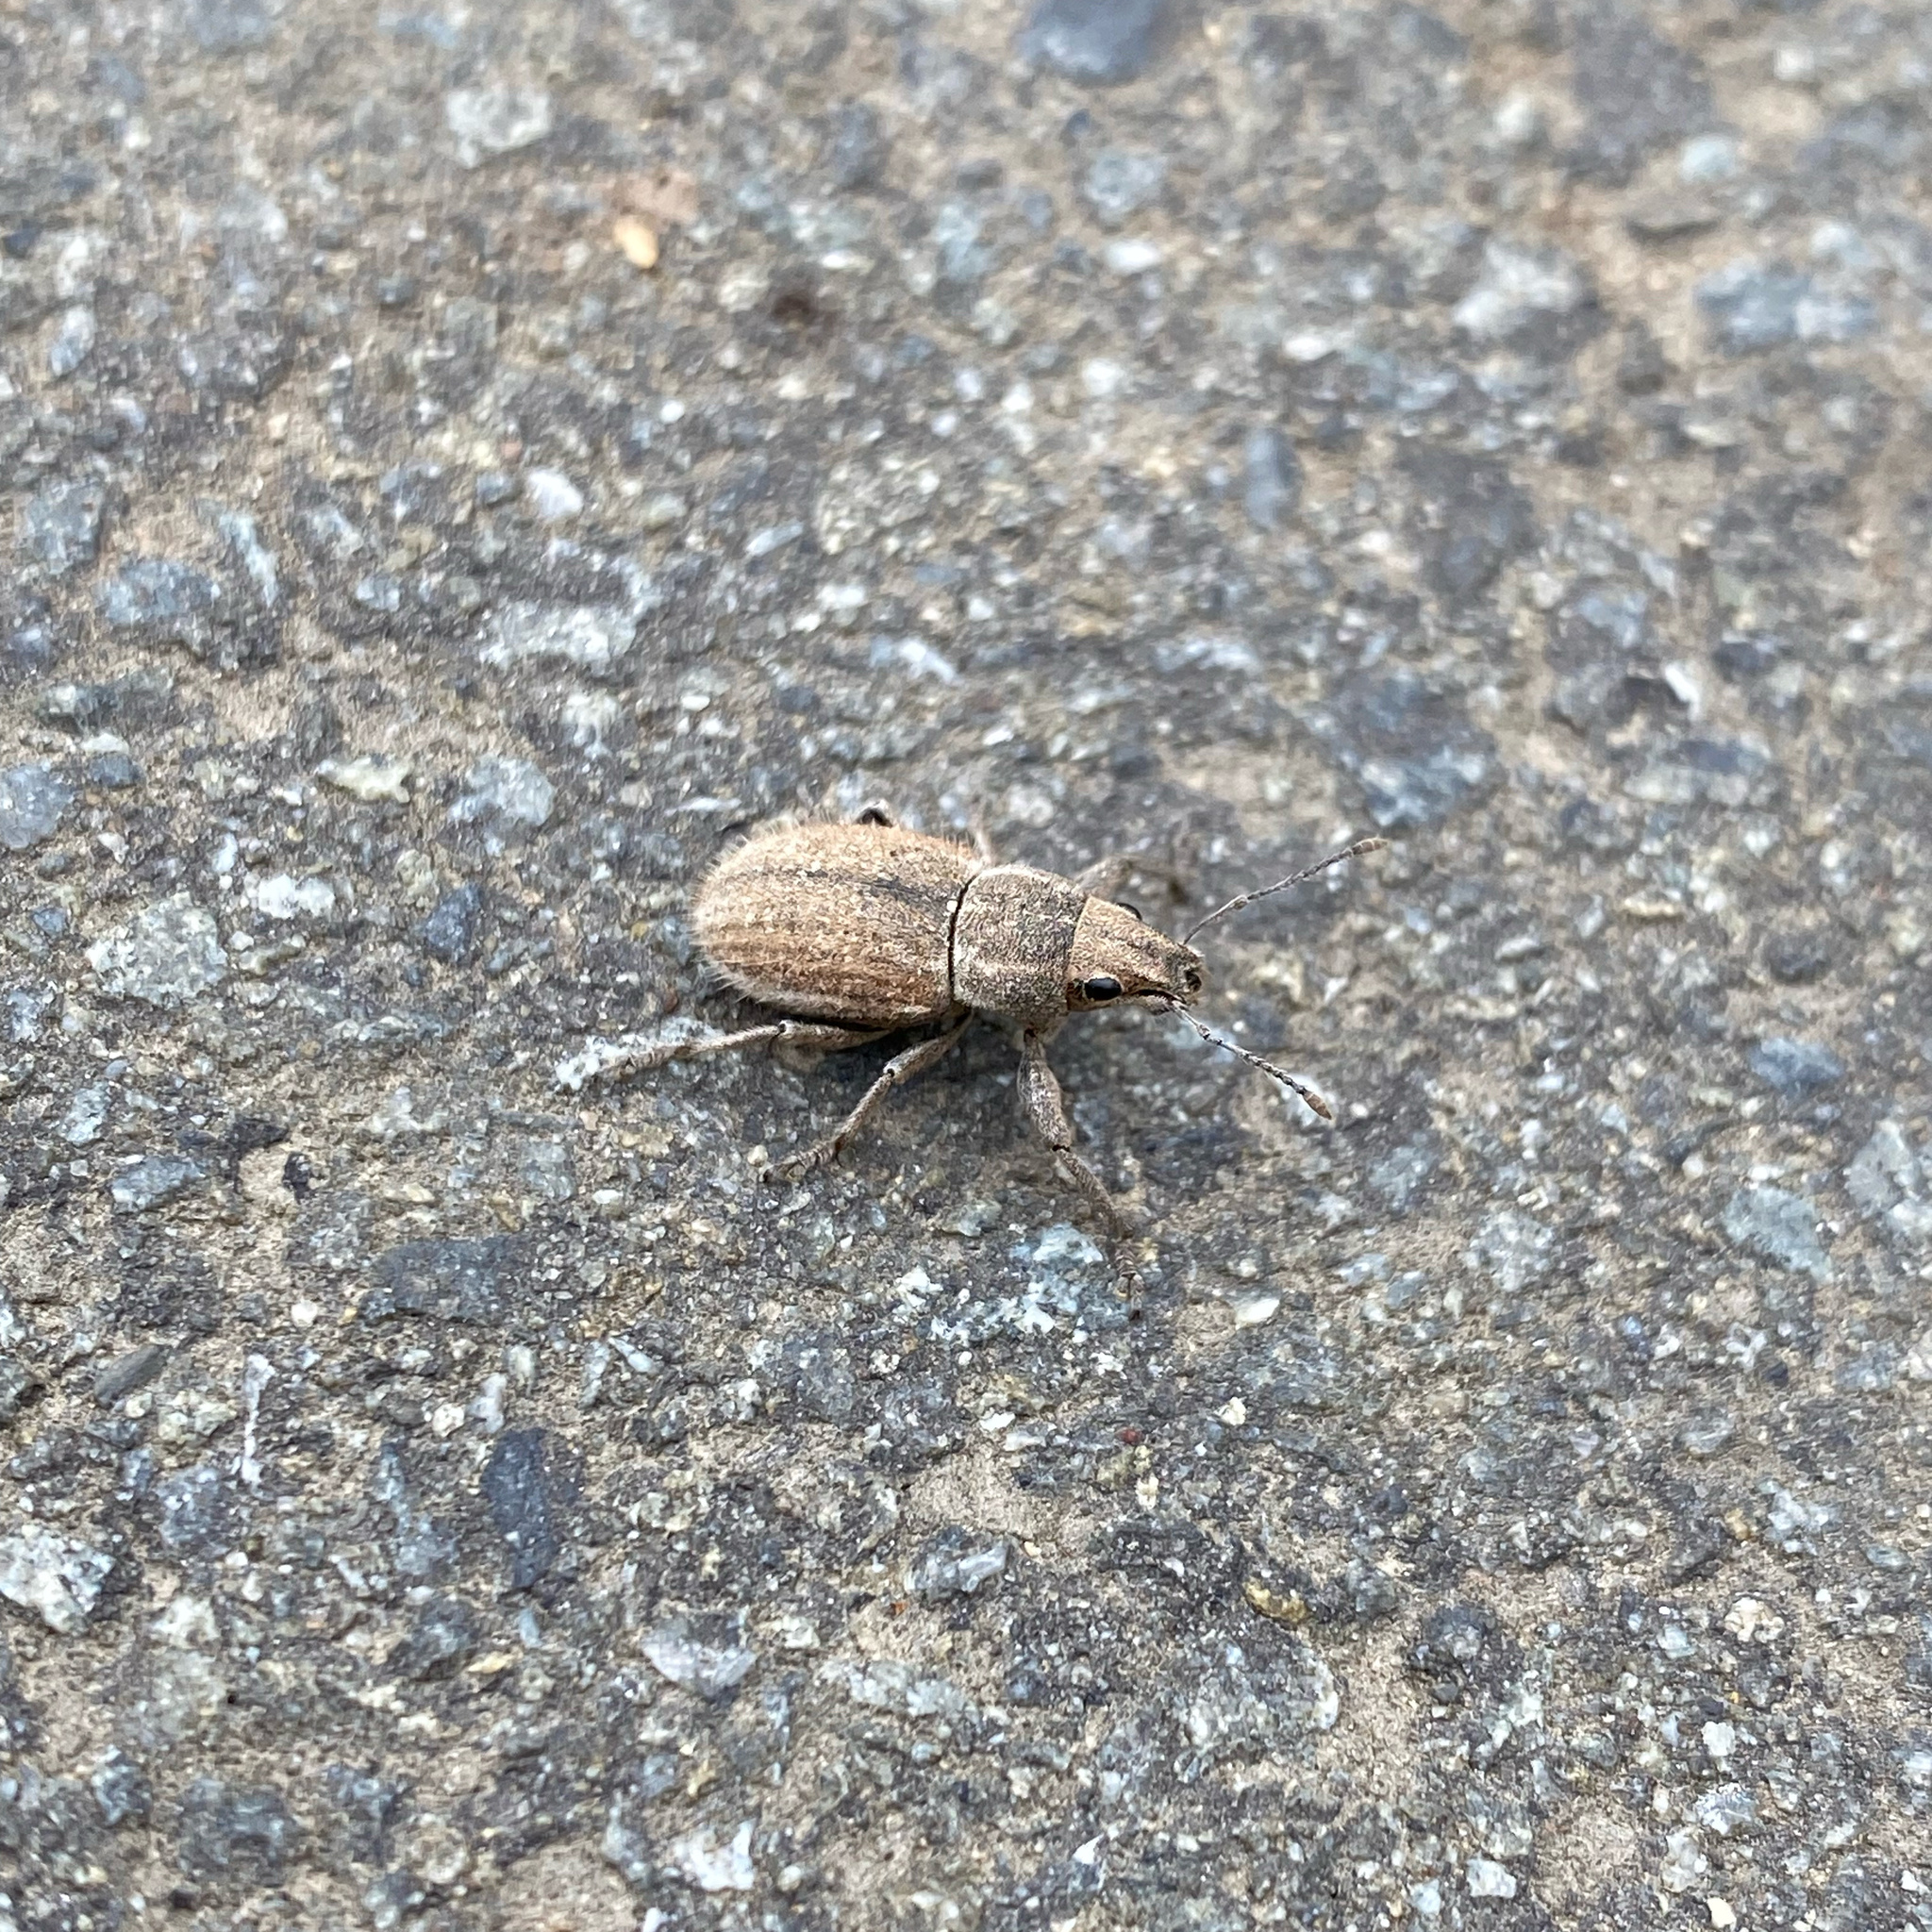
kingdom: Animalia
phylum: Arthropoda
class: Insecta
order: Coleoptera
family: Curculionidae
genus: Naupactus
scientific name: Naupactus leucoloma
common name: Whitefringed beetle
